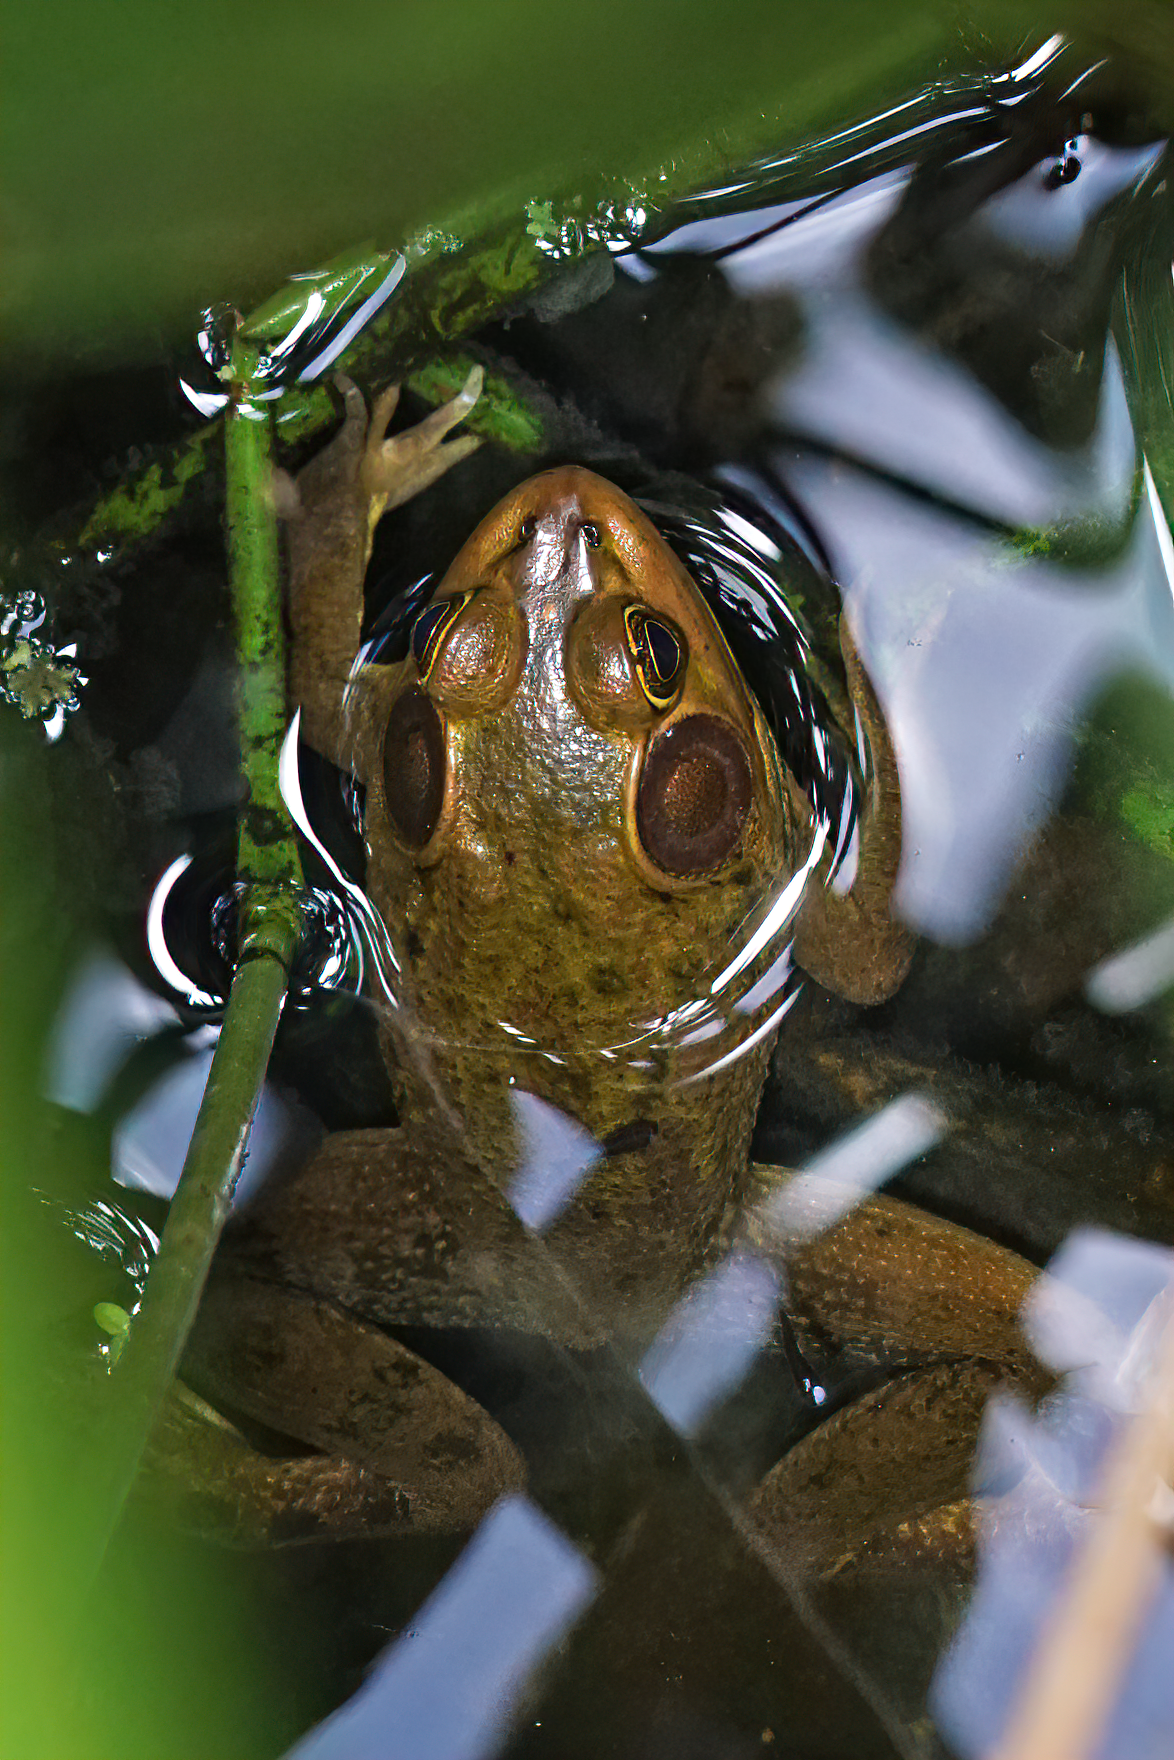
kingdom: Animalia
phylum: Chordata
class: Amphibia
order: Anura
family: Ranidae
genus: Lithobates
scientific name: Lithobates grylio
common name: Pig frog
